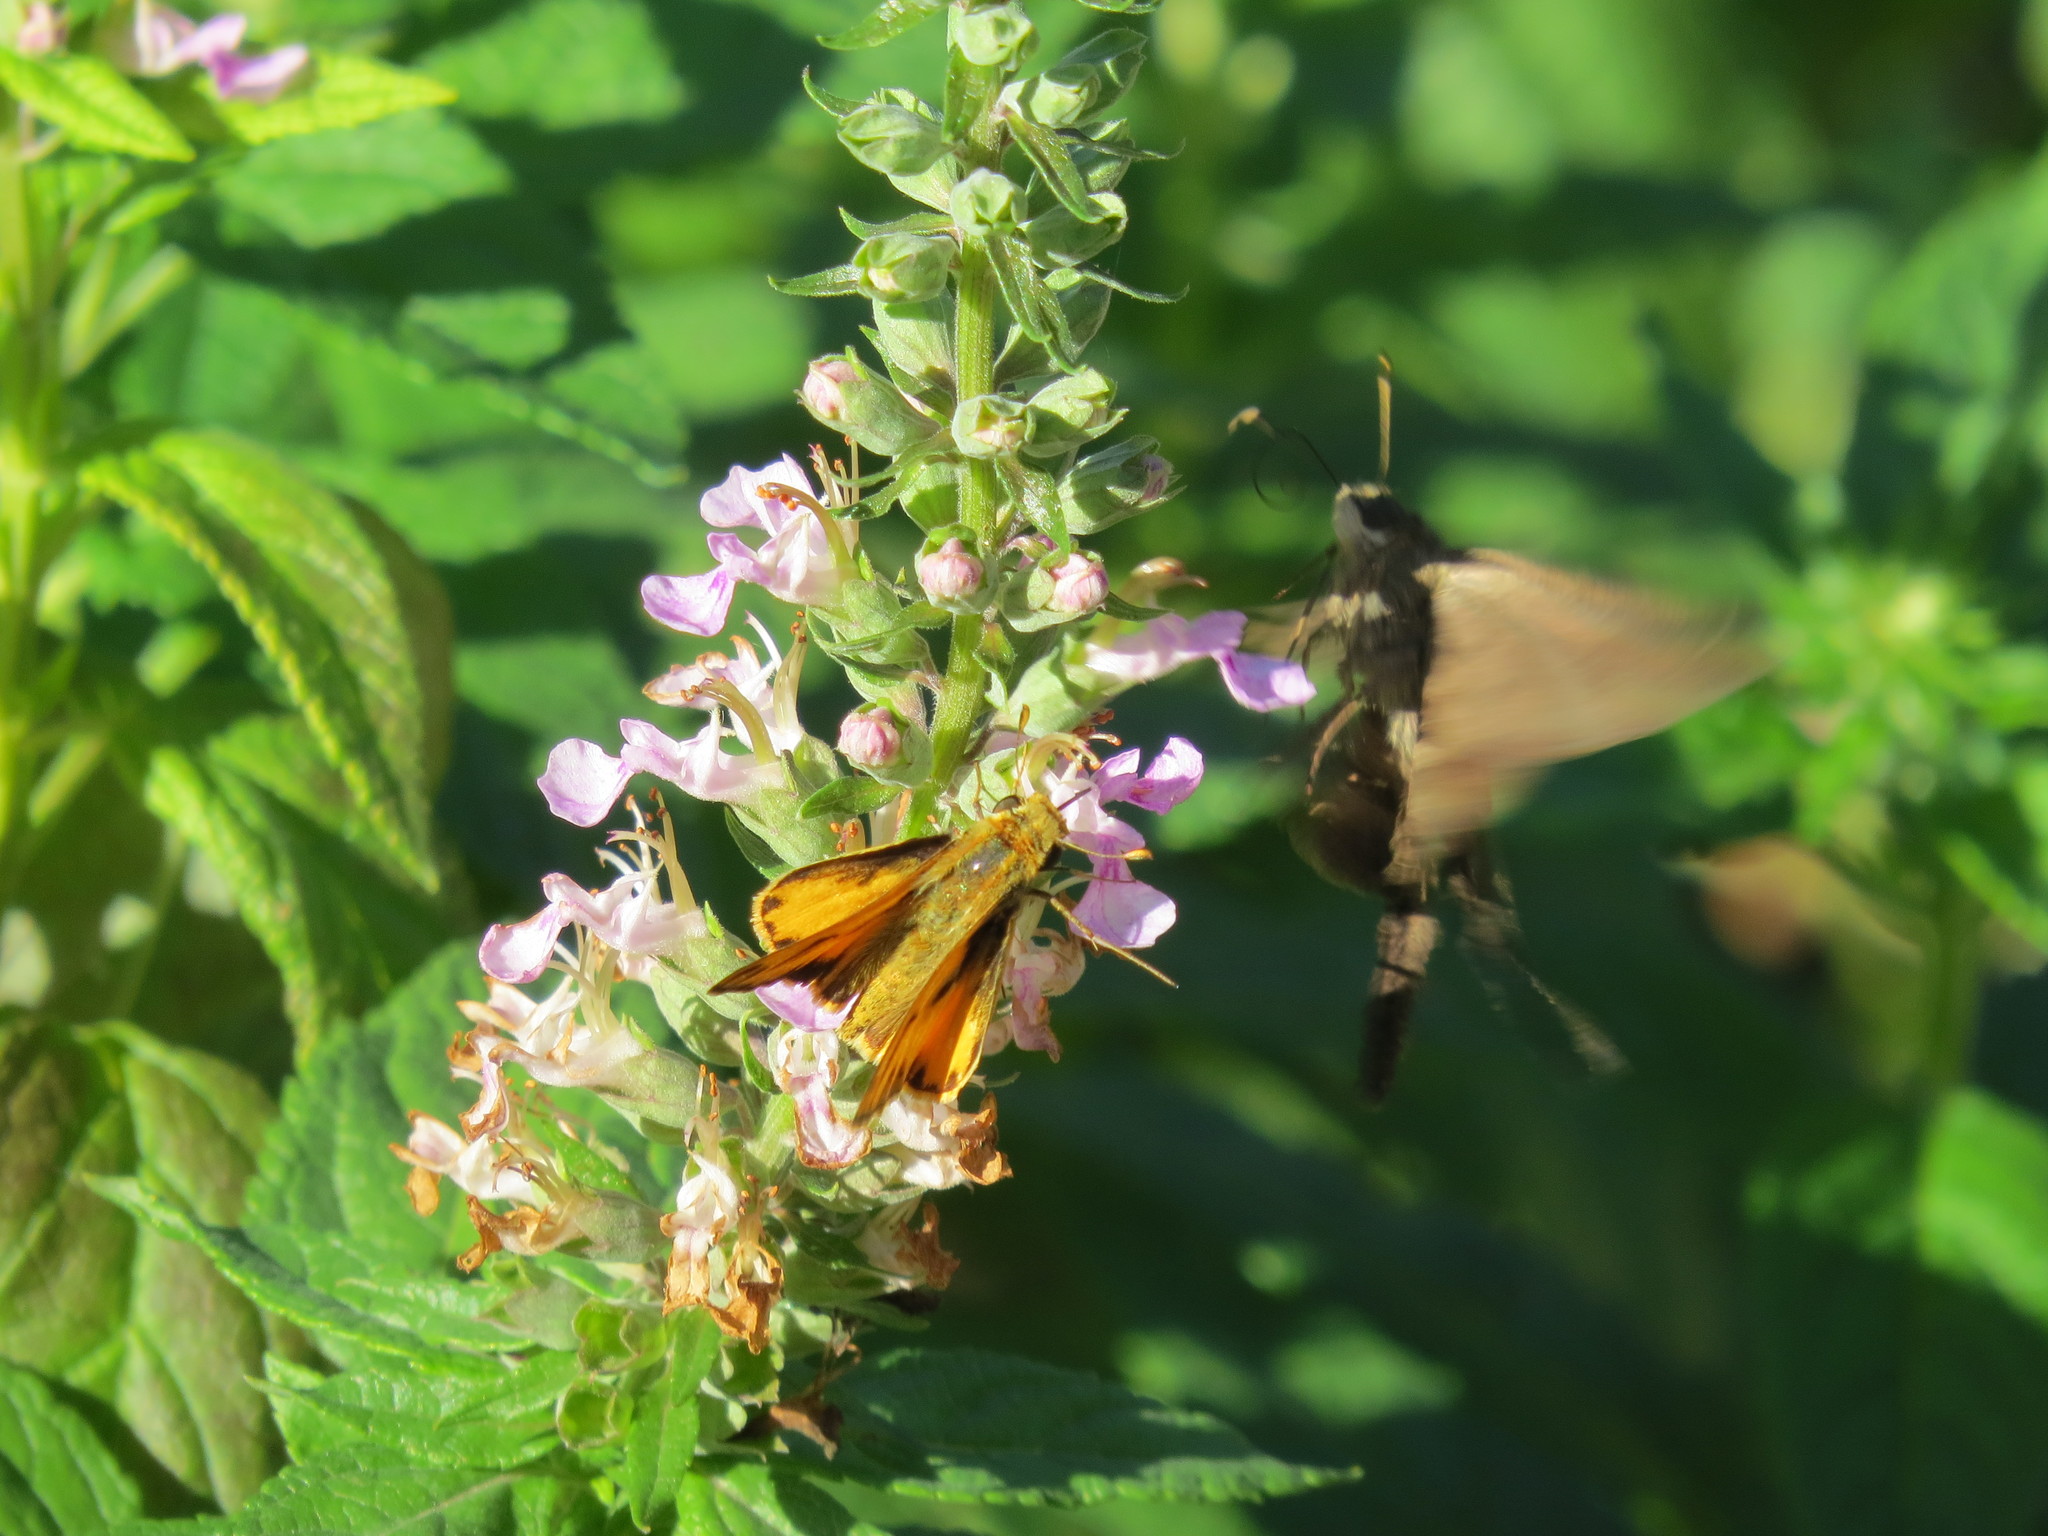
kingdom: Animalia
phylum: Arthropoda
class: Insecta
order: Lepidoptera
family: Hesperiidae
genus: Hylephila
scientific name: Hylephila phyleus
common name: Fiery skipper
